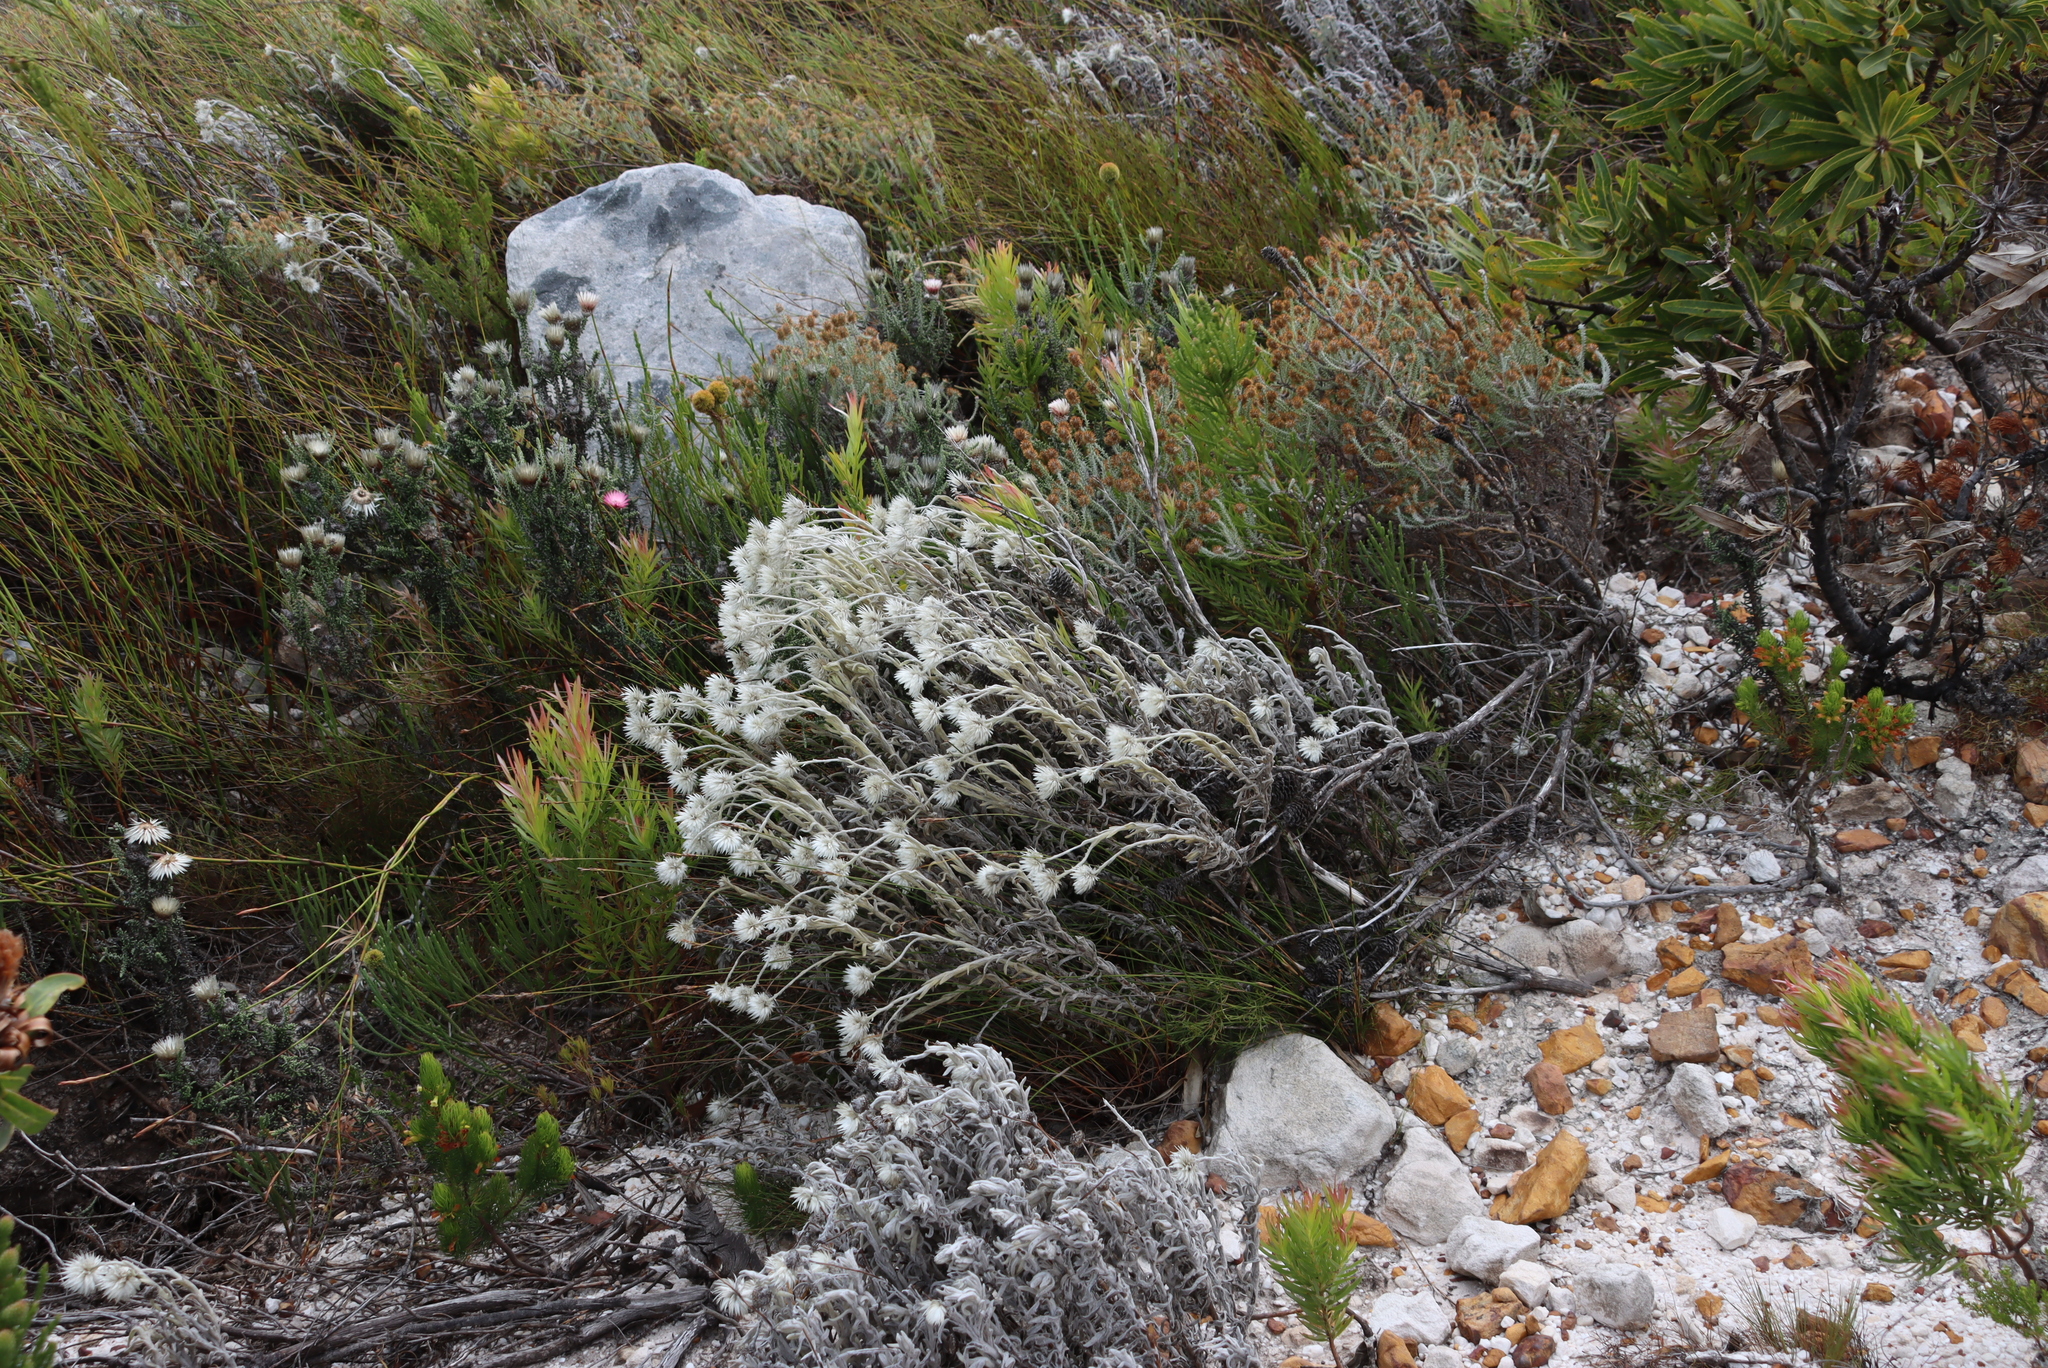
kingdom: Plantae
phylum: Tracheophyta
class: Magnoliopsida
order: Asterales
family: Asteraceae
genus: Syncarpha
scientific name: Syncarpha vestita
